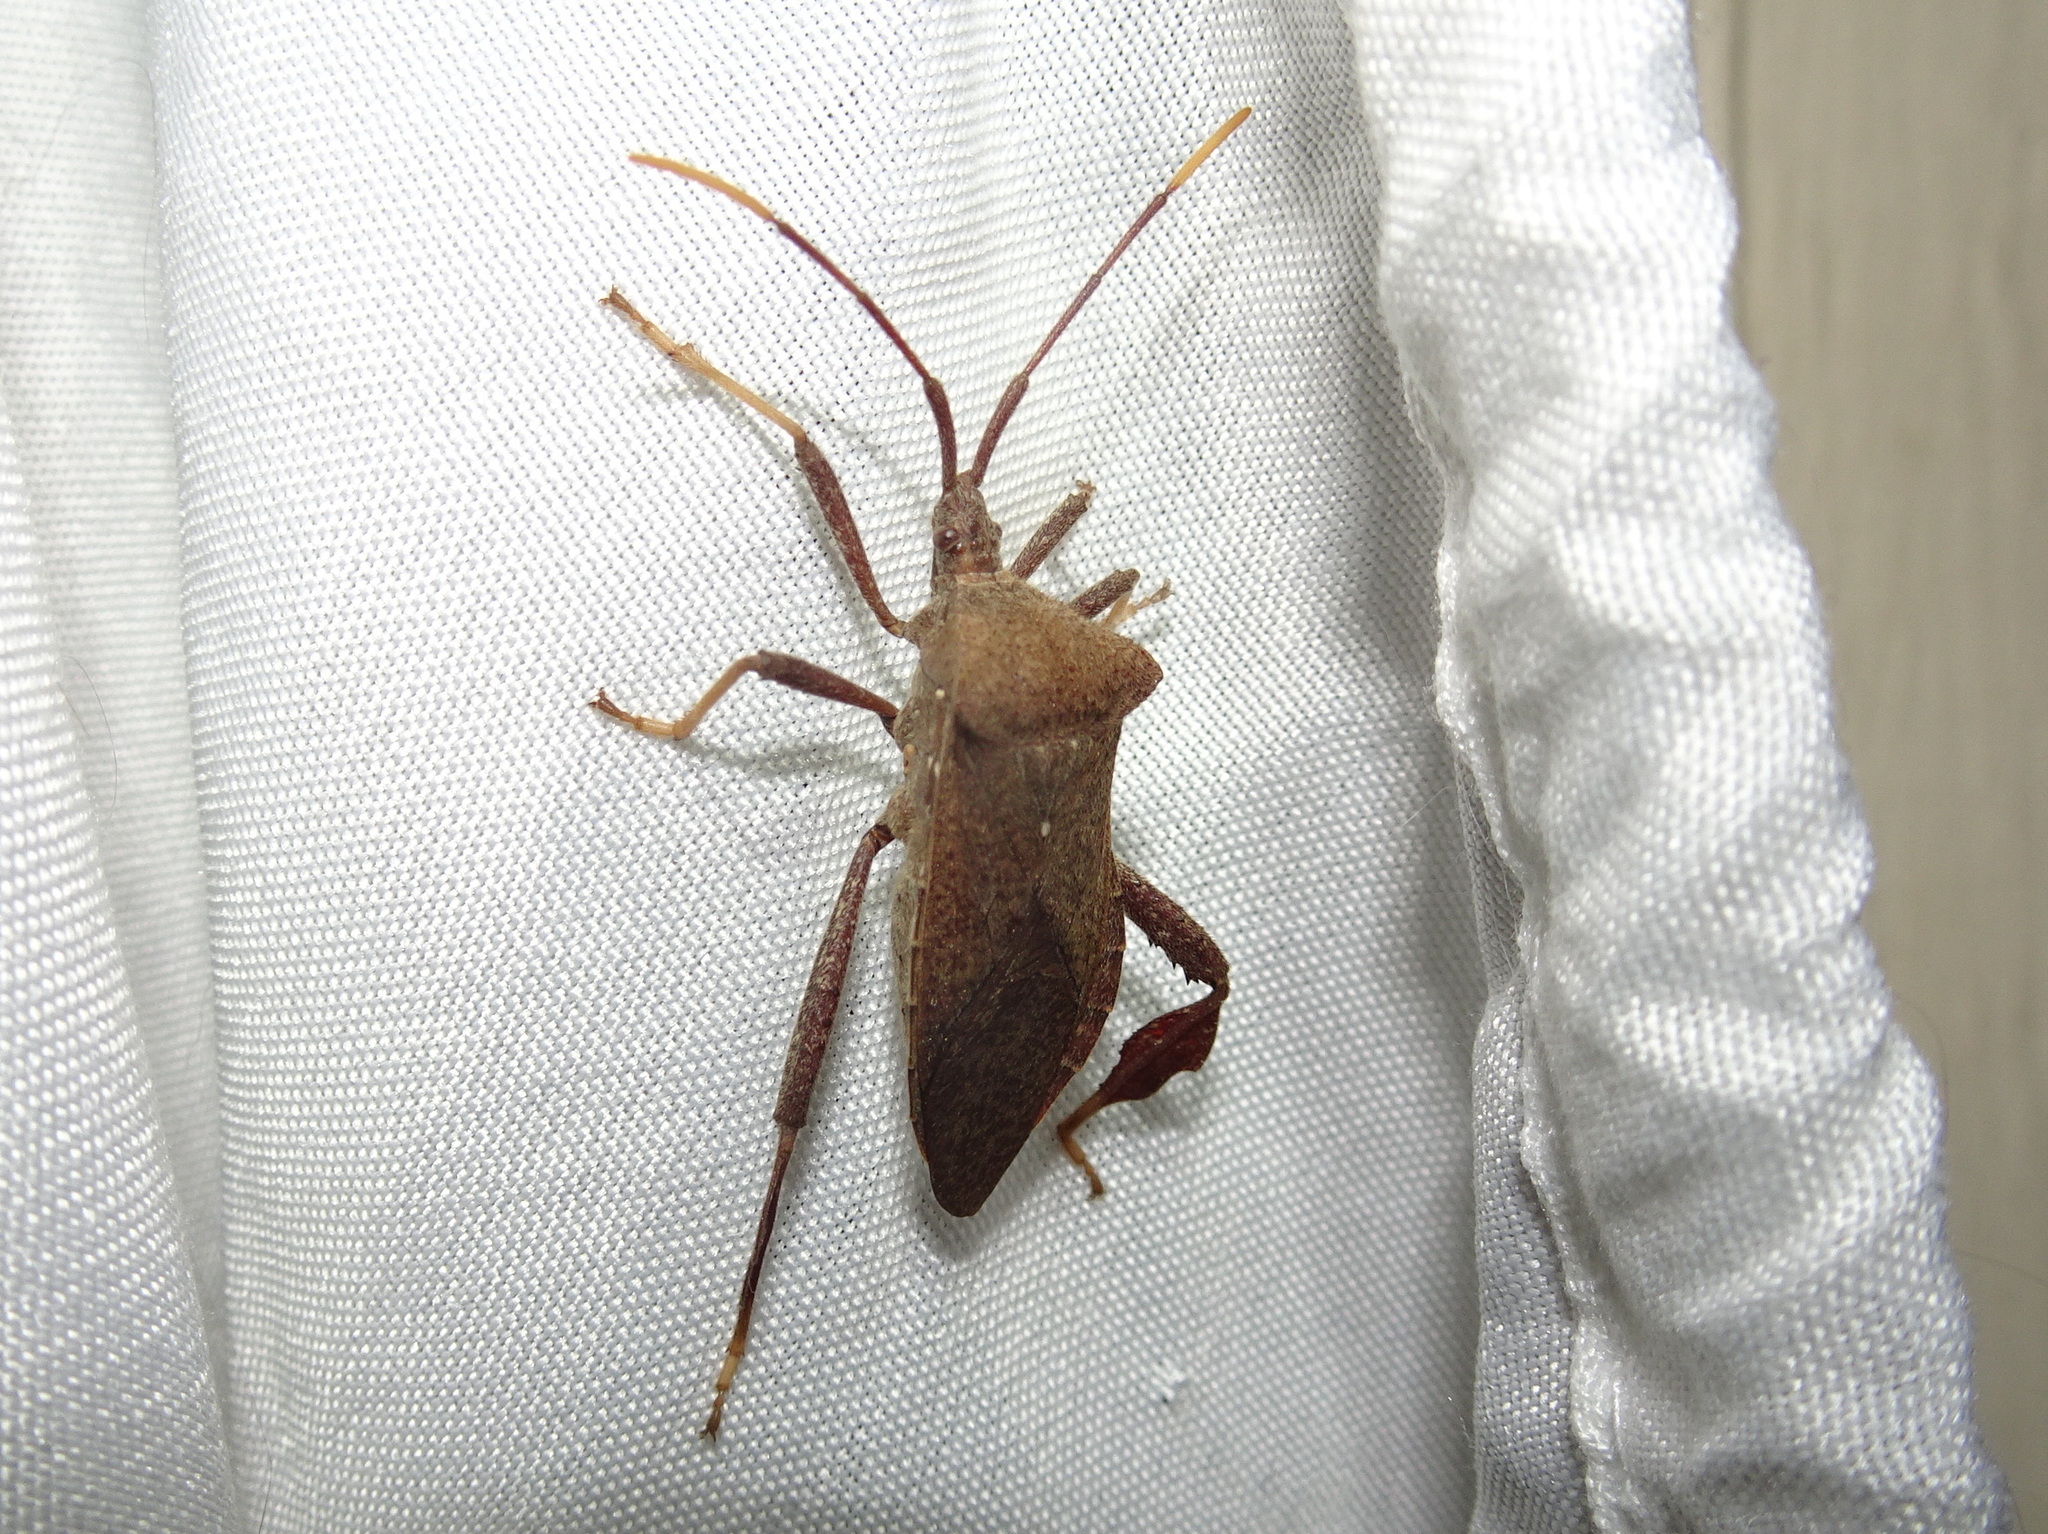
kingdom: Animalia
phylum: Arthropoda
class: Insecta
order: Hemiptera
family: Coreidae
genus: Acanthocephala
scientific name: Acanthocephala terminalis
